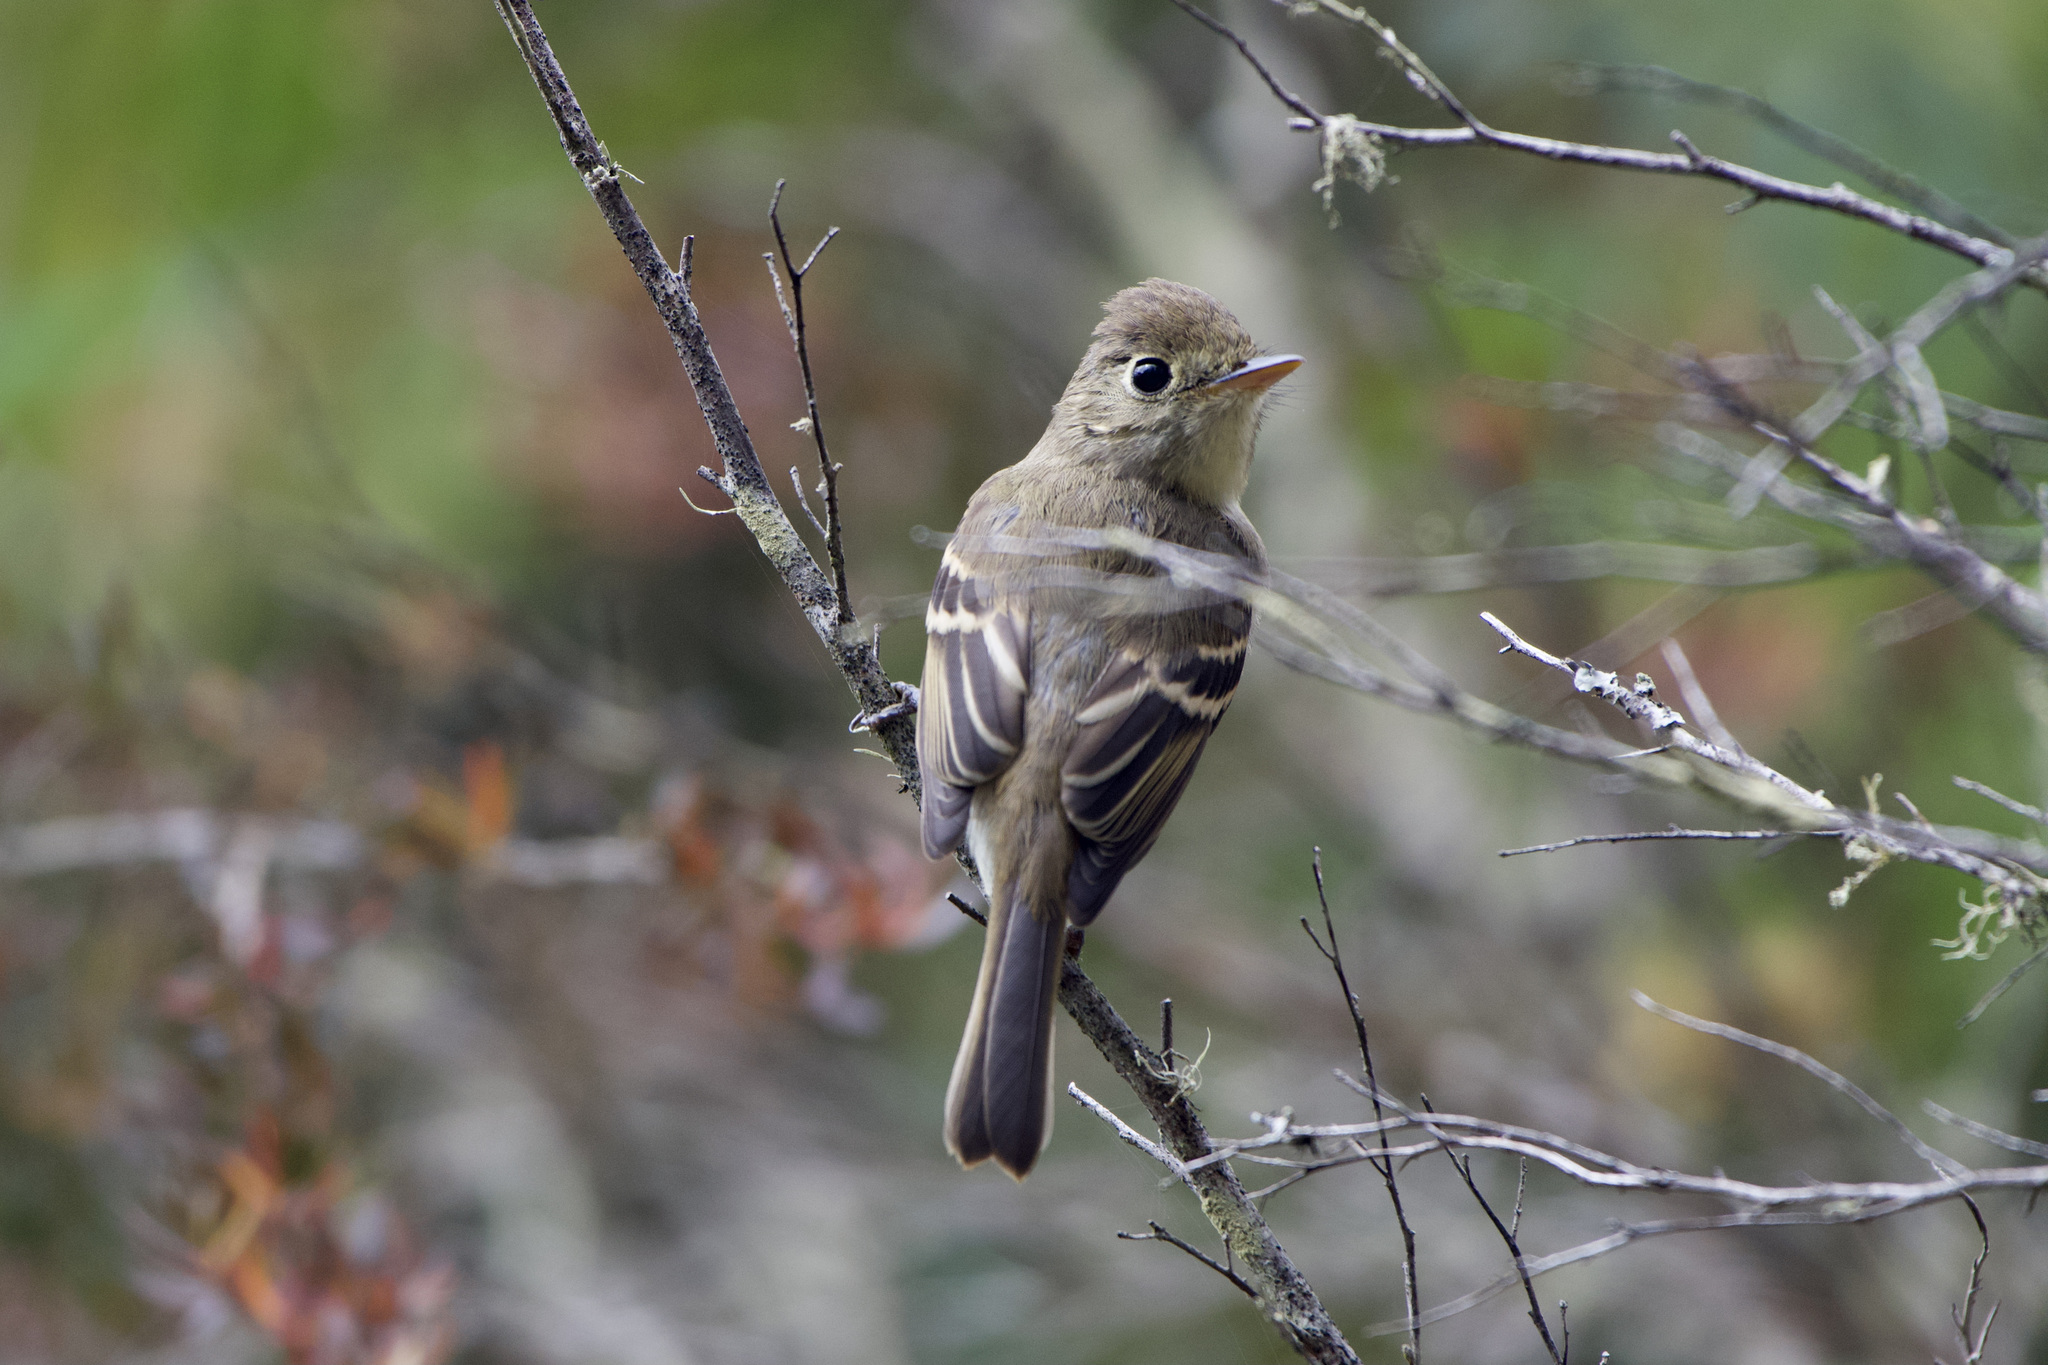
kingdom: Animalia
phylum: Chordata
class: Aves
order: Passeriformes
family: Tyrannidae
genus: Empidonax
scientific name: Empidonax difficilis
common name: Pacific-slope flycatcher
